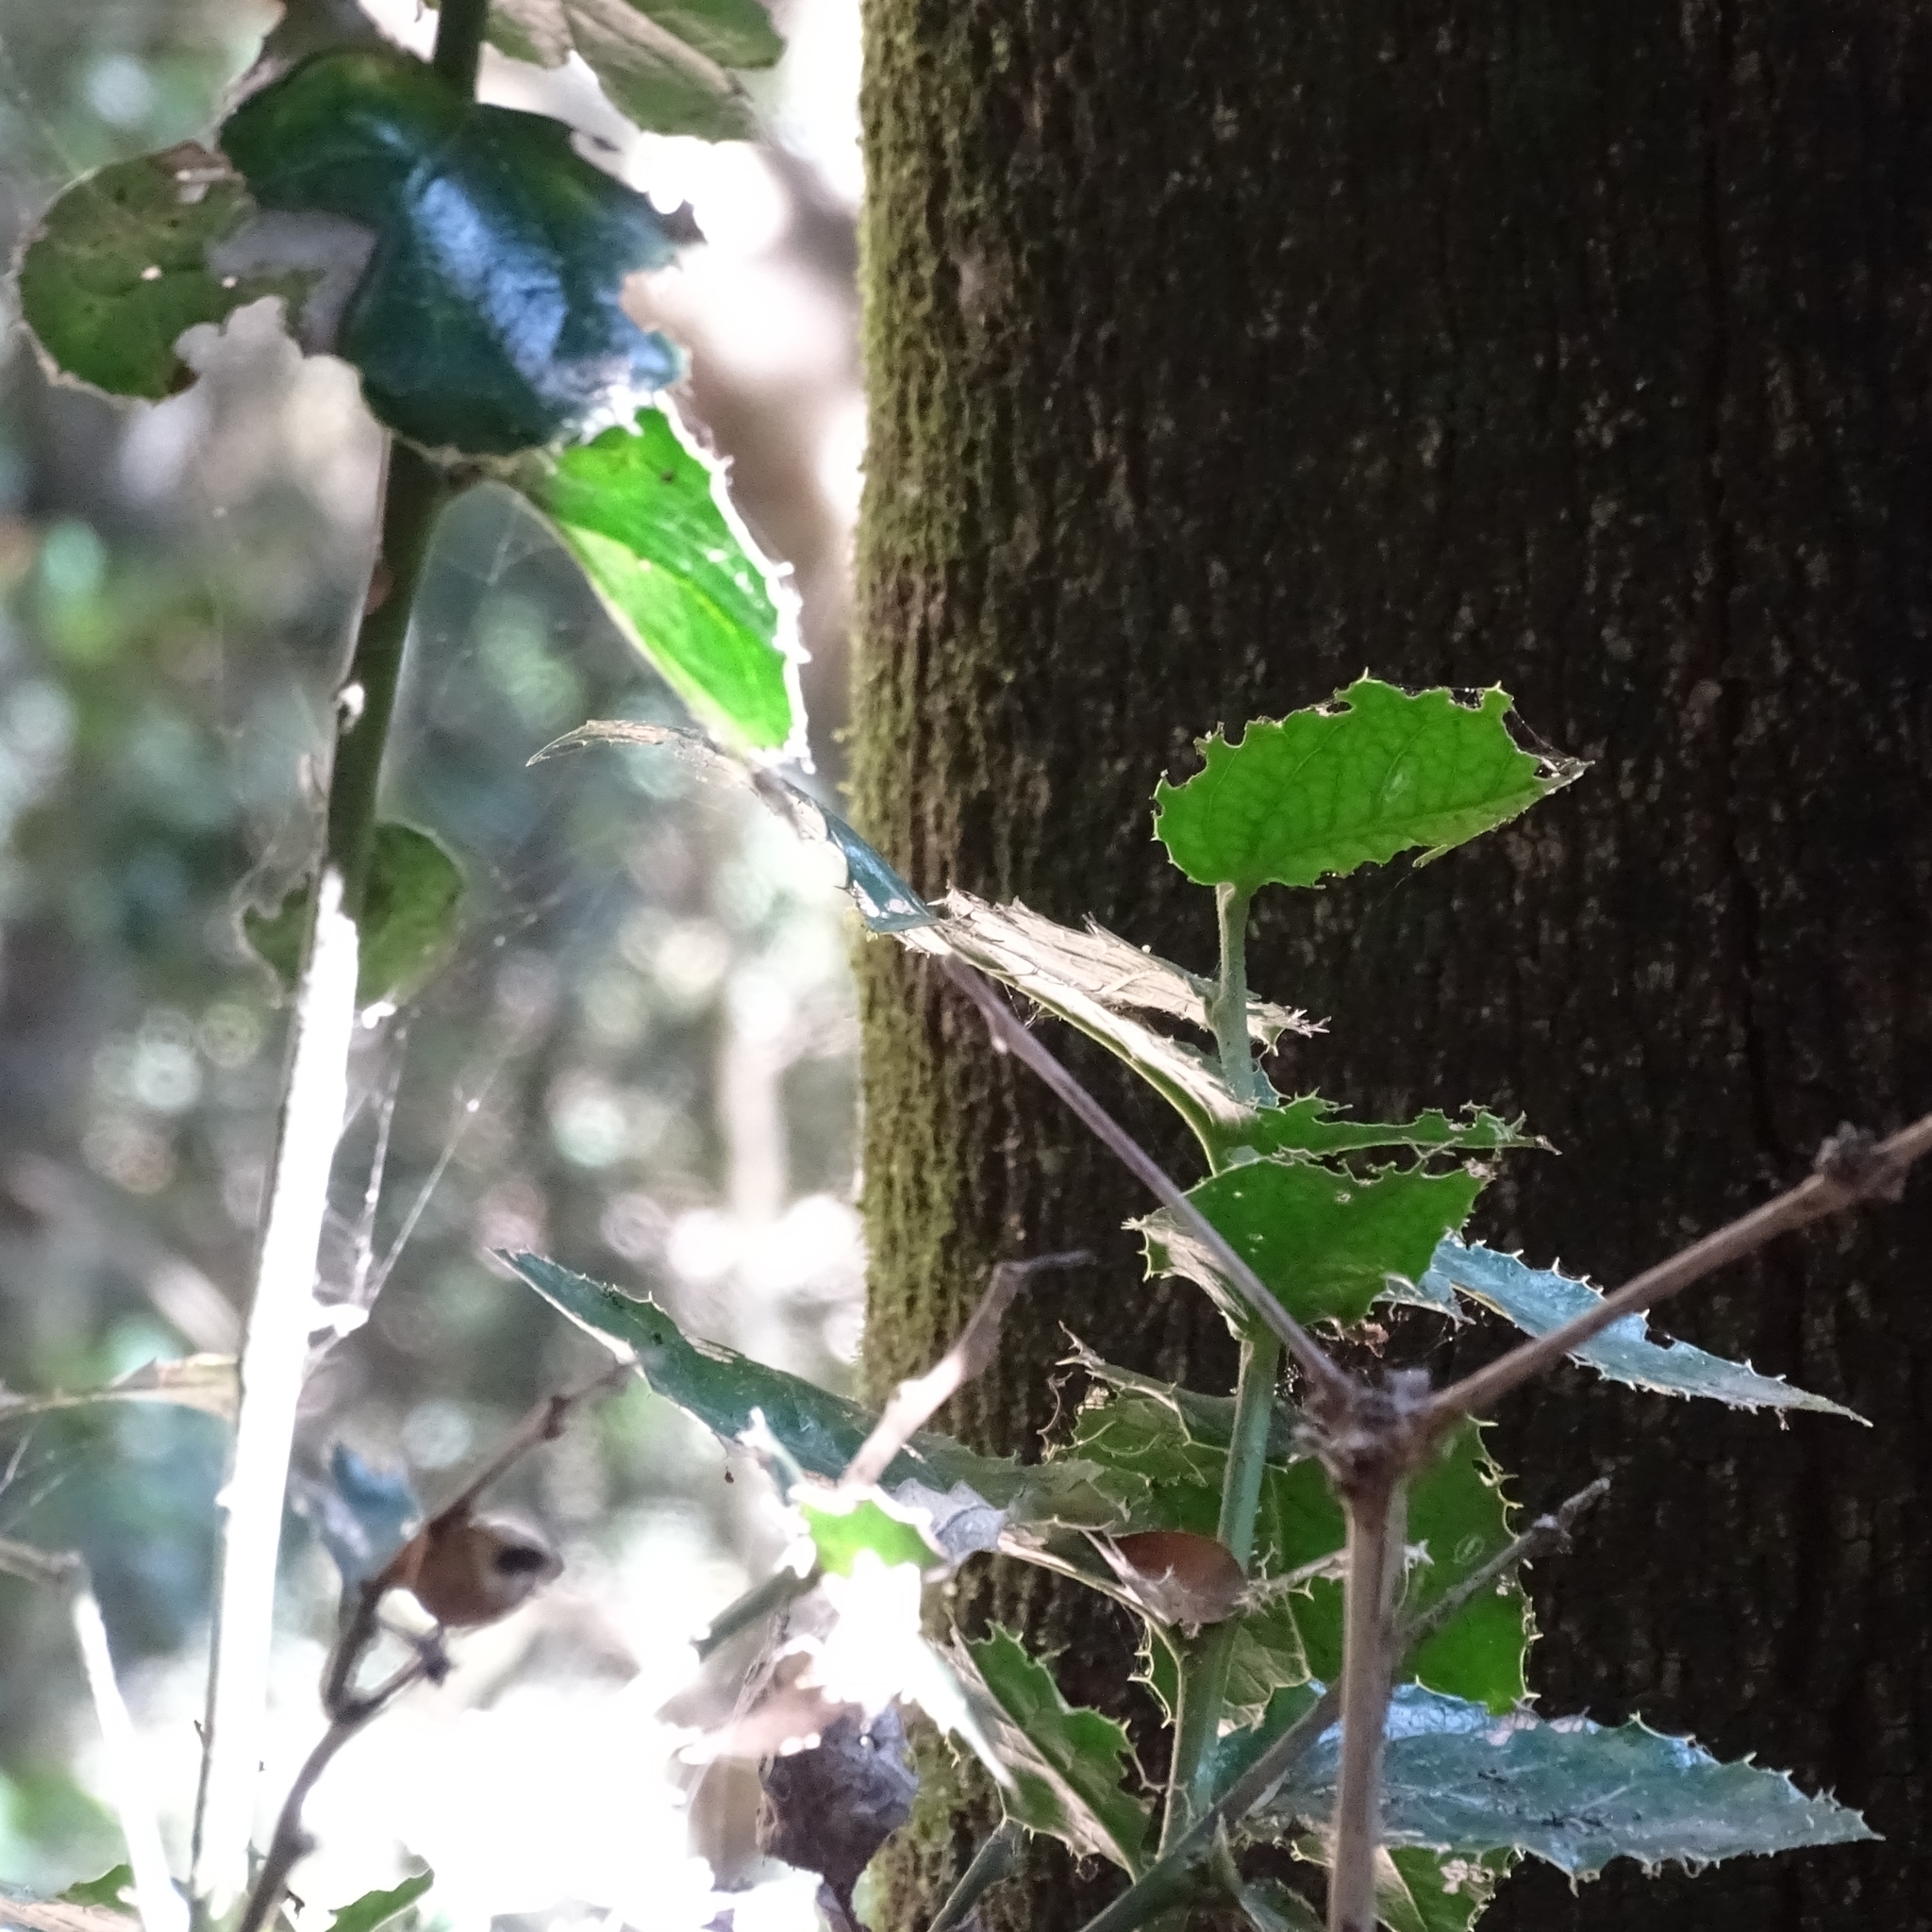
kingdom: Plantae
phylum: Tracheophyta
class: Magnoliopsida
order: Cardiopteridales
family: Cardiopteridaceae
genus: Citronella
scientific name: Citronella mucronata
